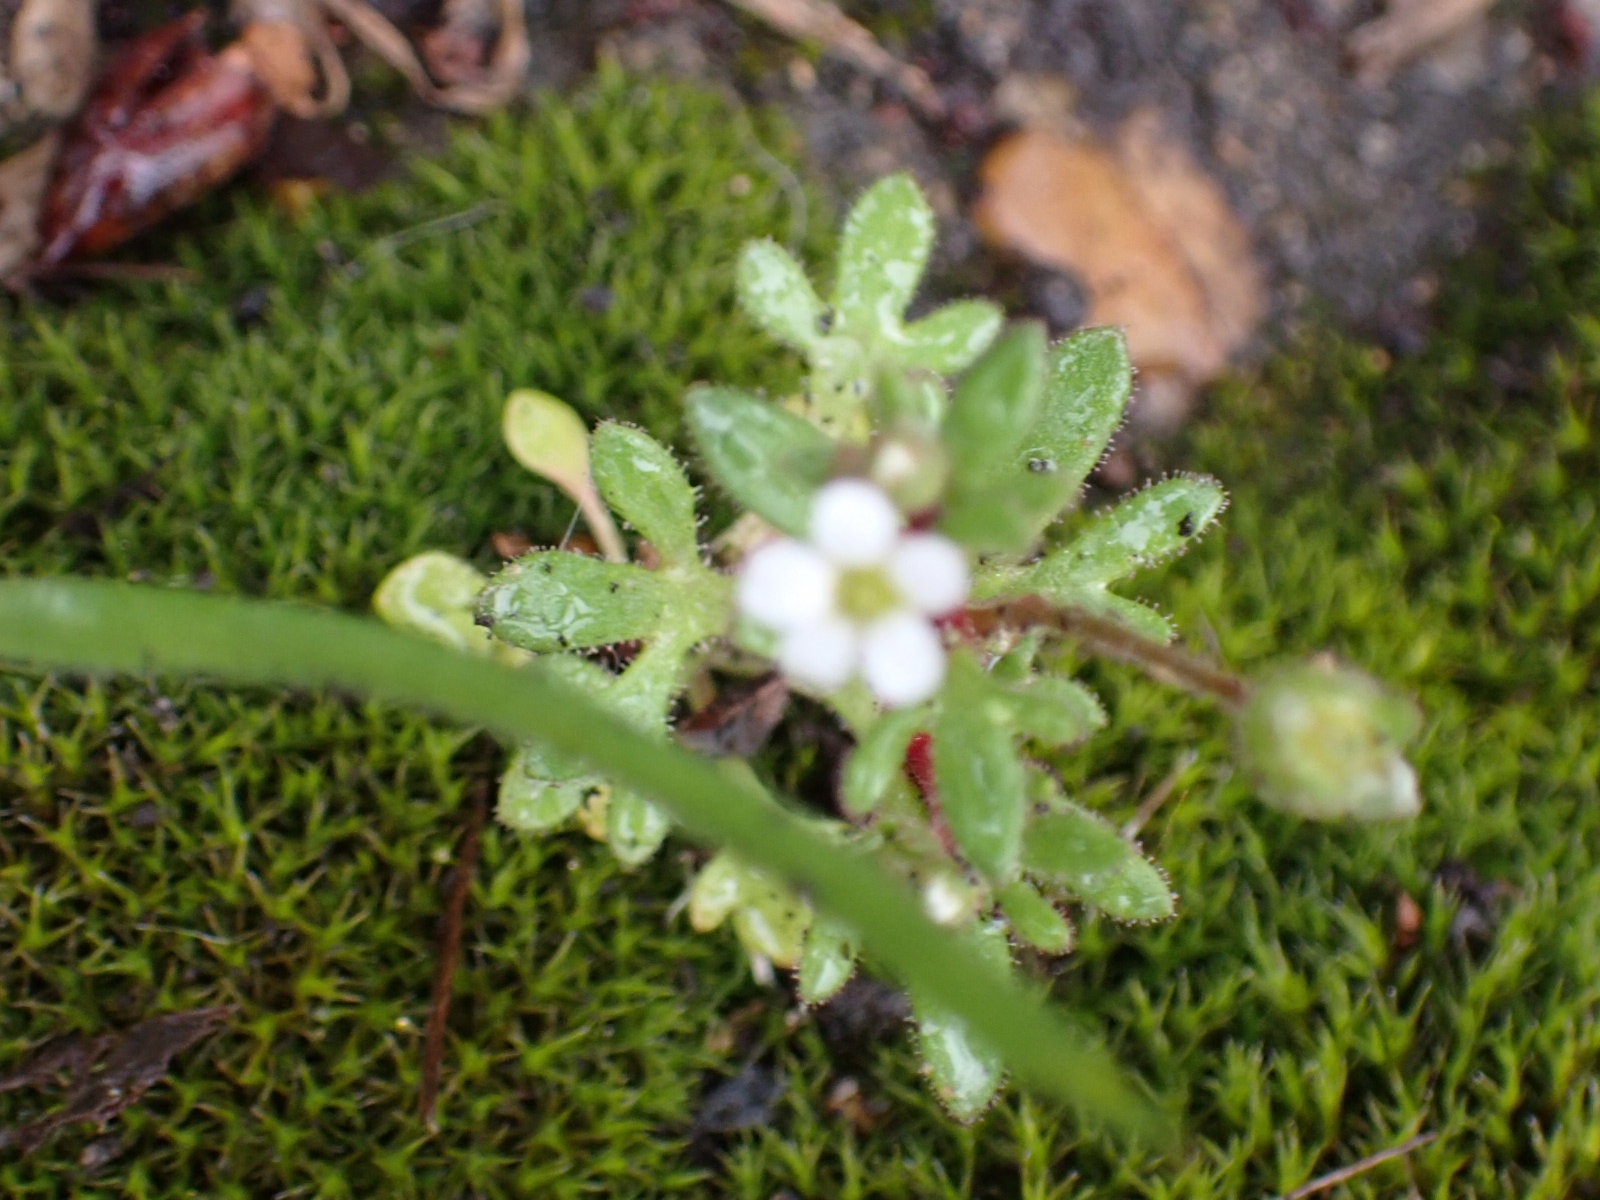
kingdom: Plantae
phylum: Tracheophyta
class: Magnoliopsida
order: Saxifragales
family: Saxifragaceae
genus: Saxifraga
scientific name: Saxifraga tridactylites
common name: Rue-leaved saxifrage
